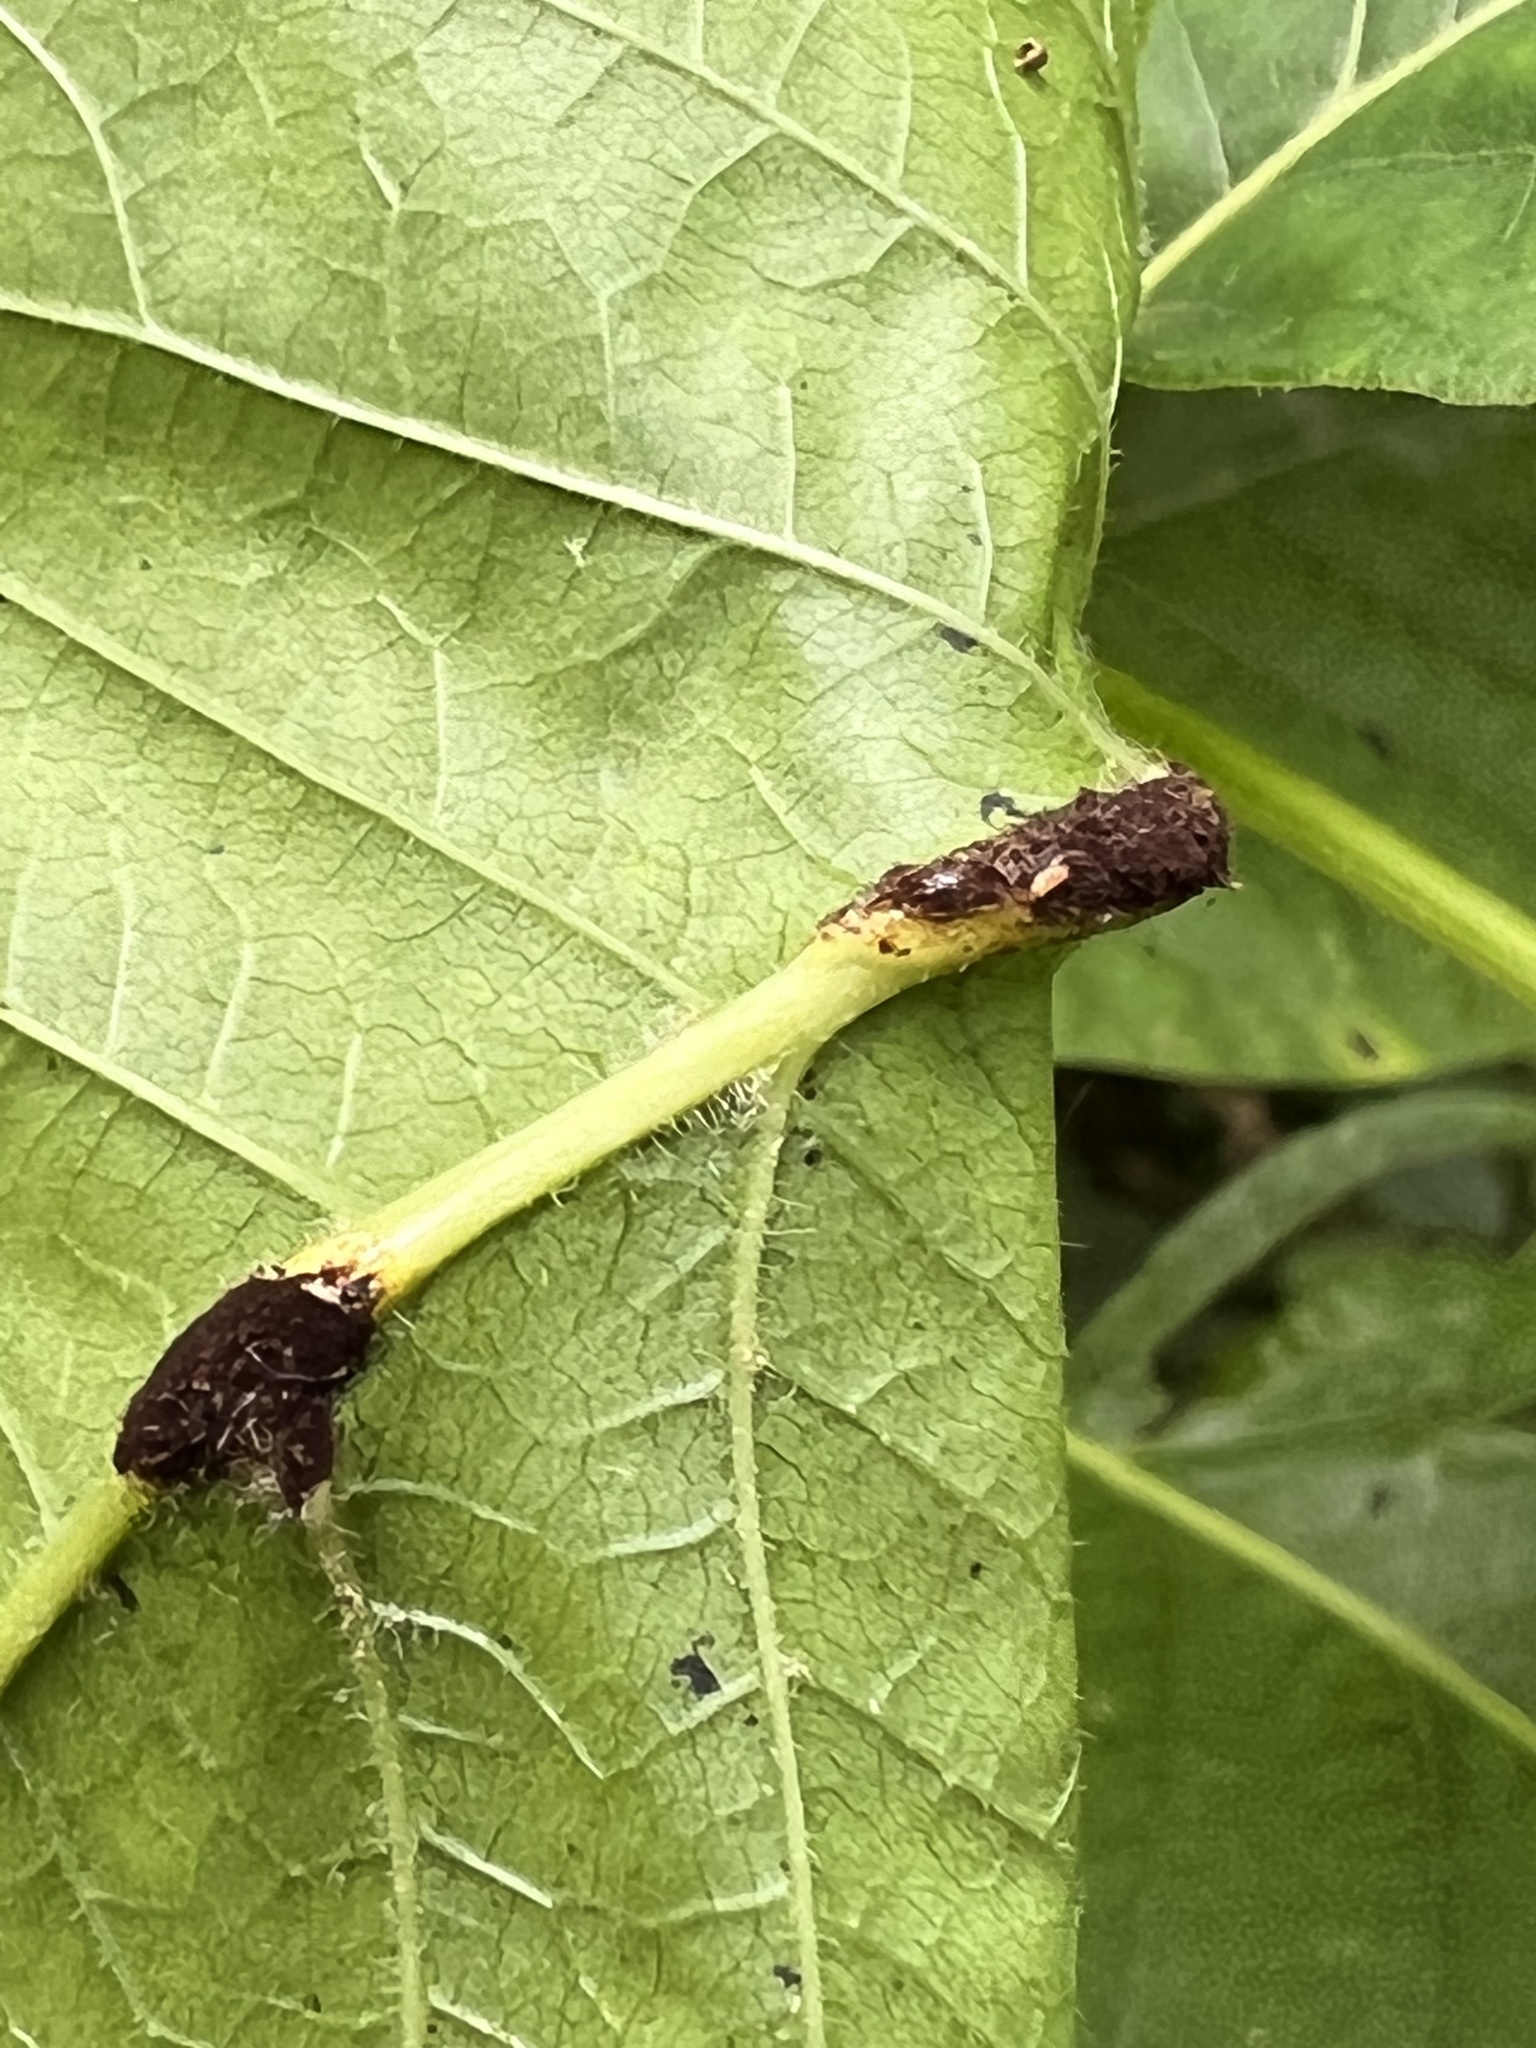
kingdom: Fungi
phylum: Basidiomycota
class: Pucciniomycetes
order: Pucciniales
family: Pileolariaceae
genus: Pileolaria
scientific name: Pileolaria brevipes
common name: Poison ivy rust
